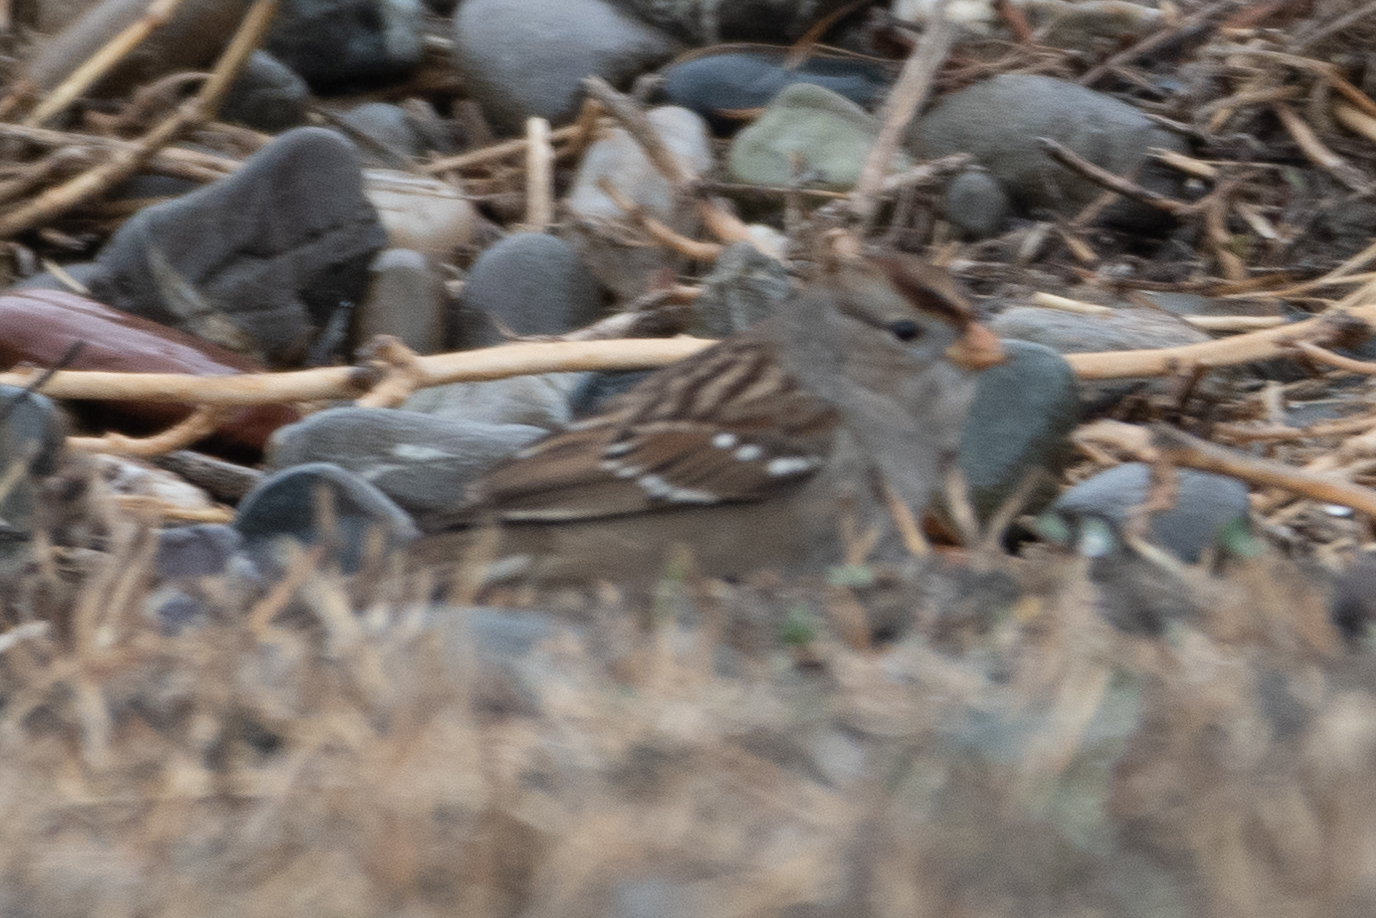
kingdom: Animalia
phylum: Chordata
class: Aves
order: Passeriformes
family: Passerellidae
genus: Zonotrichia
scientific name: Zonotrichia leucophrys
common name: White-crowned sparrow
